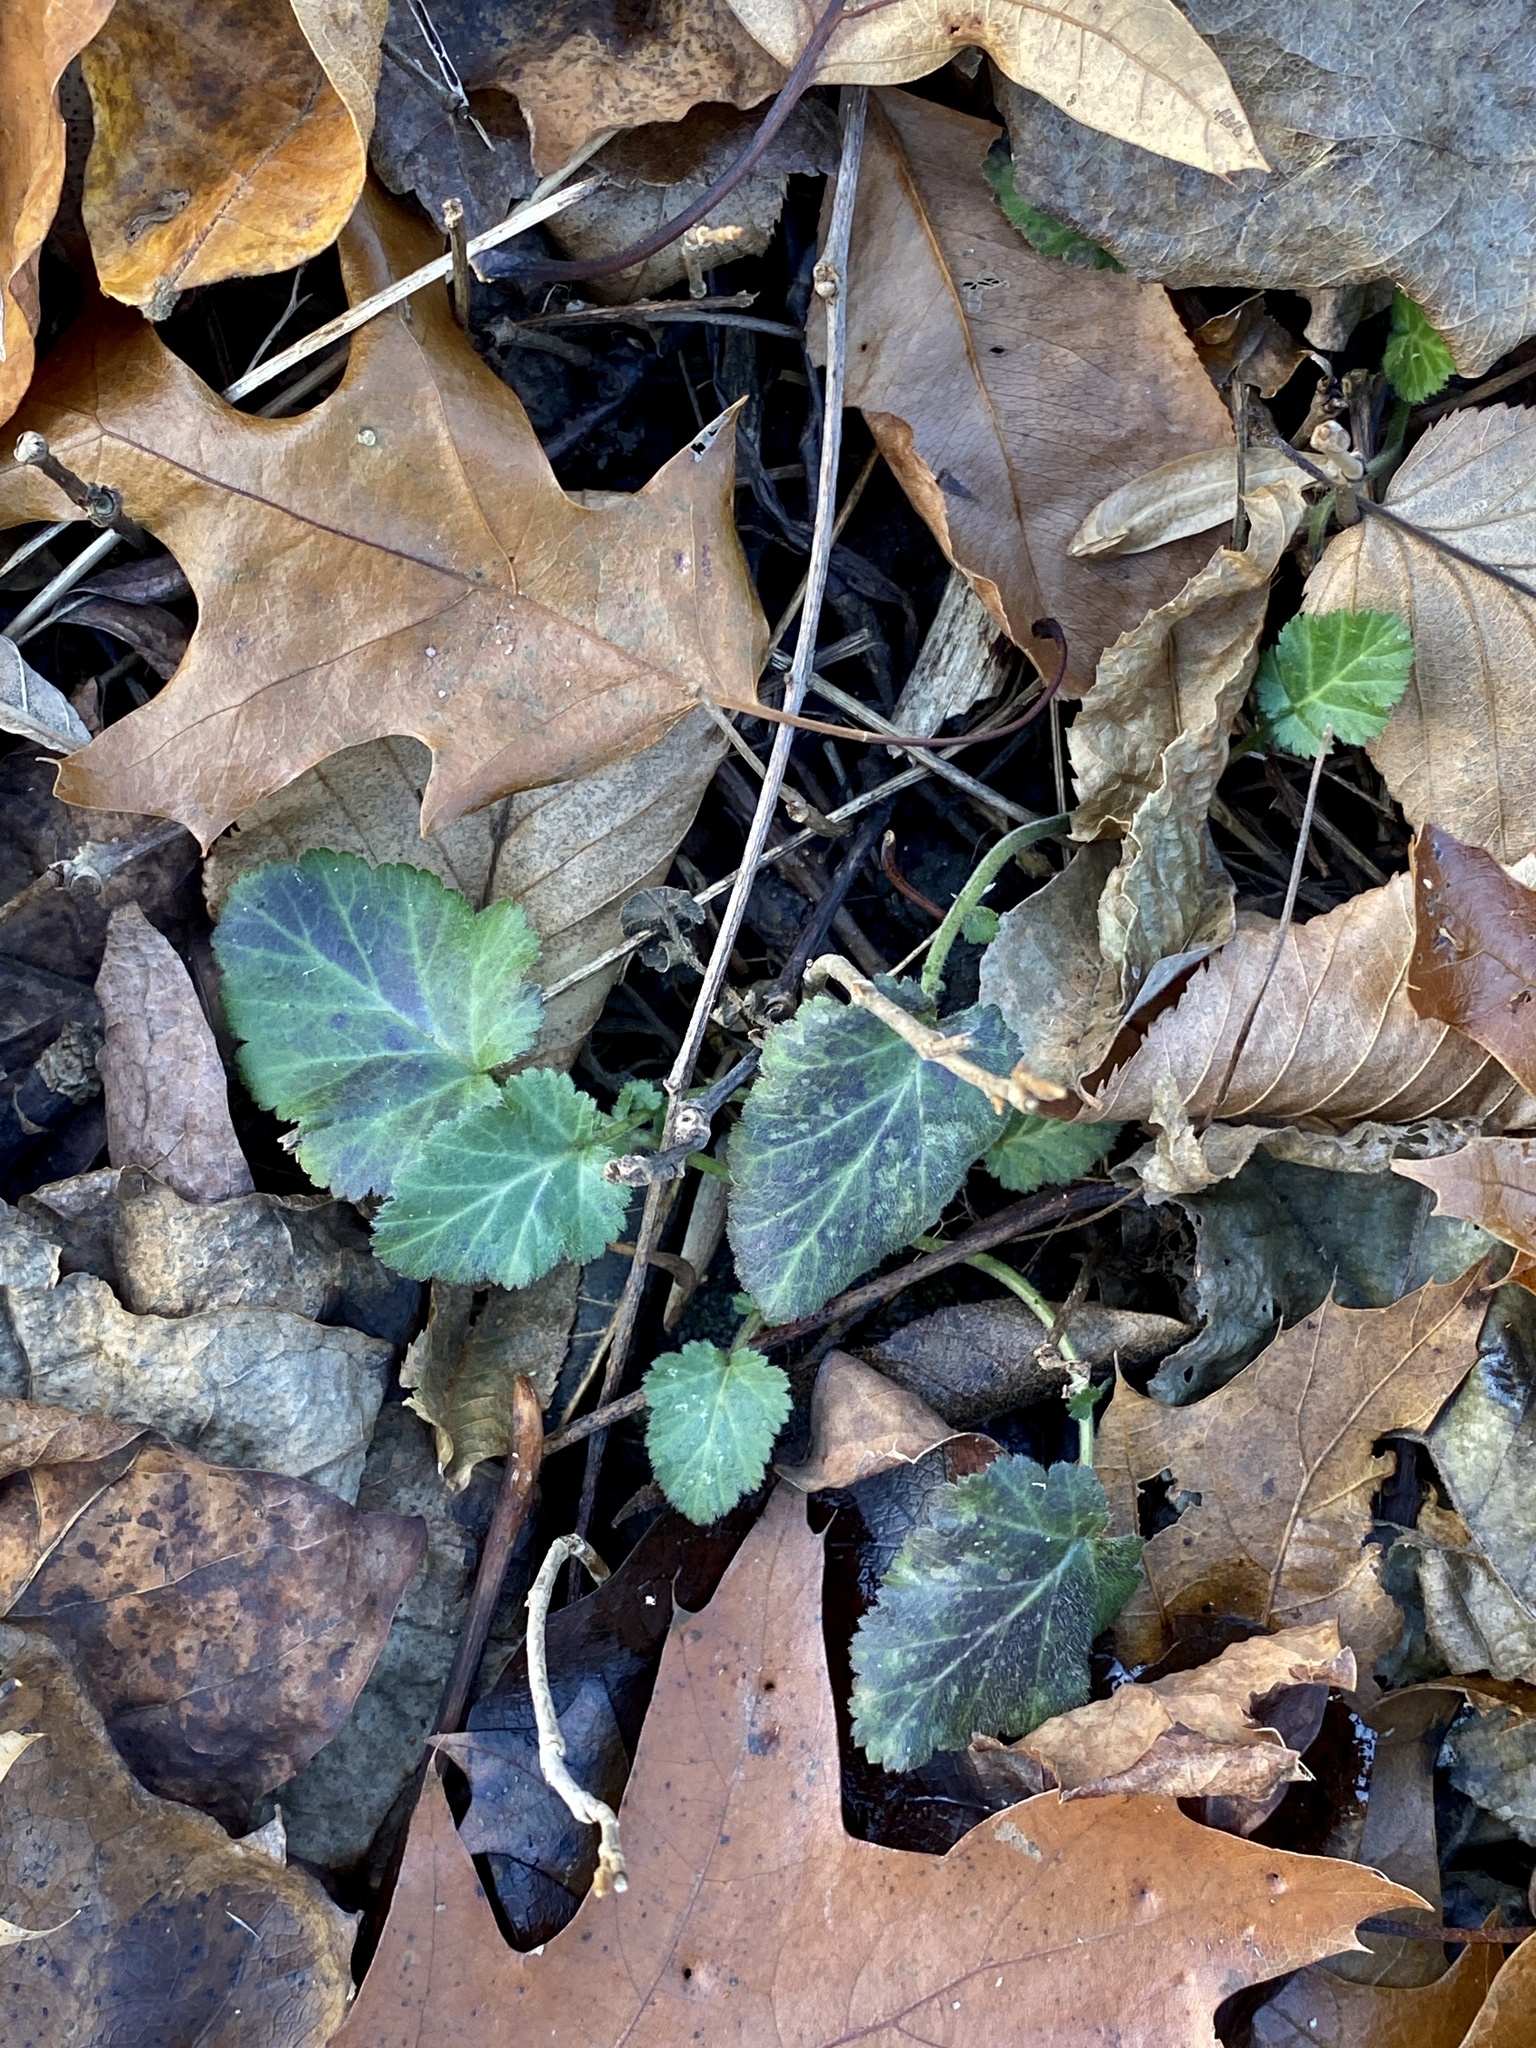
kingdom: Plantae
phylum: Tracheophyta
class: Magnoliopsida
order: Rosales
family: Rosaceae
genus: Geum
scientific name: Geum canadense
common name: White avens
